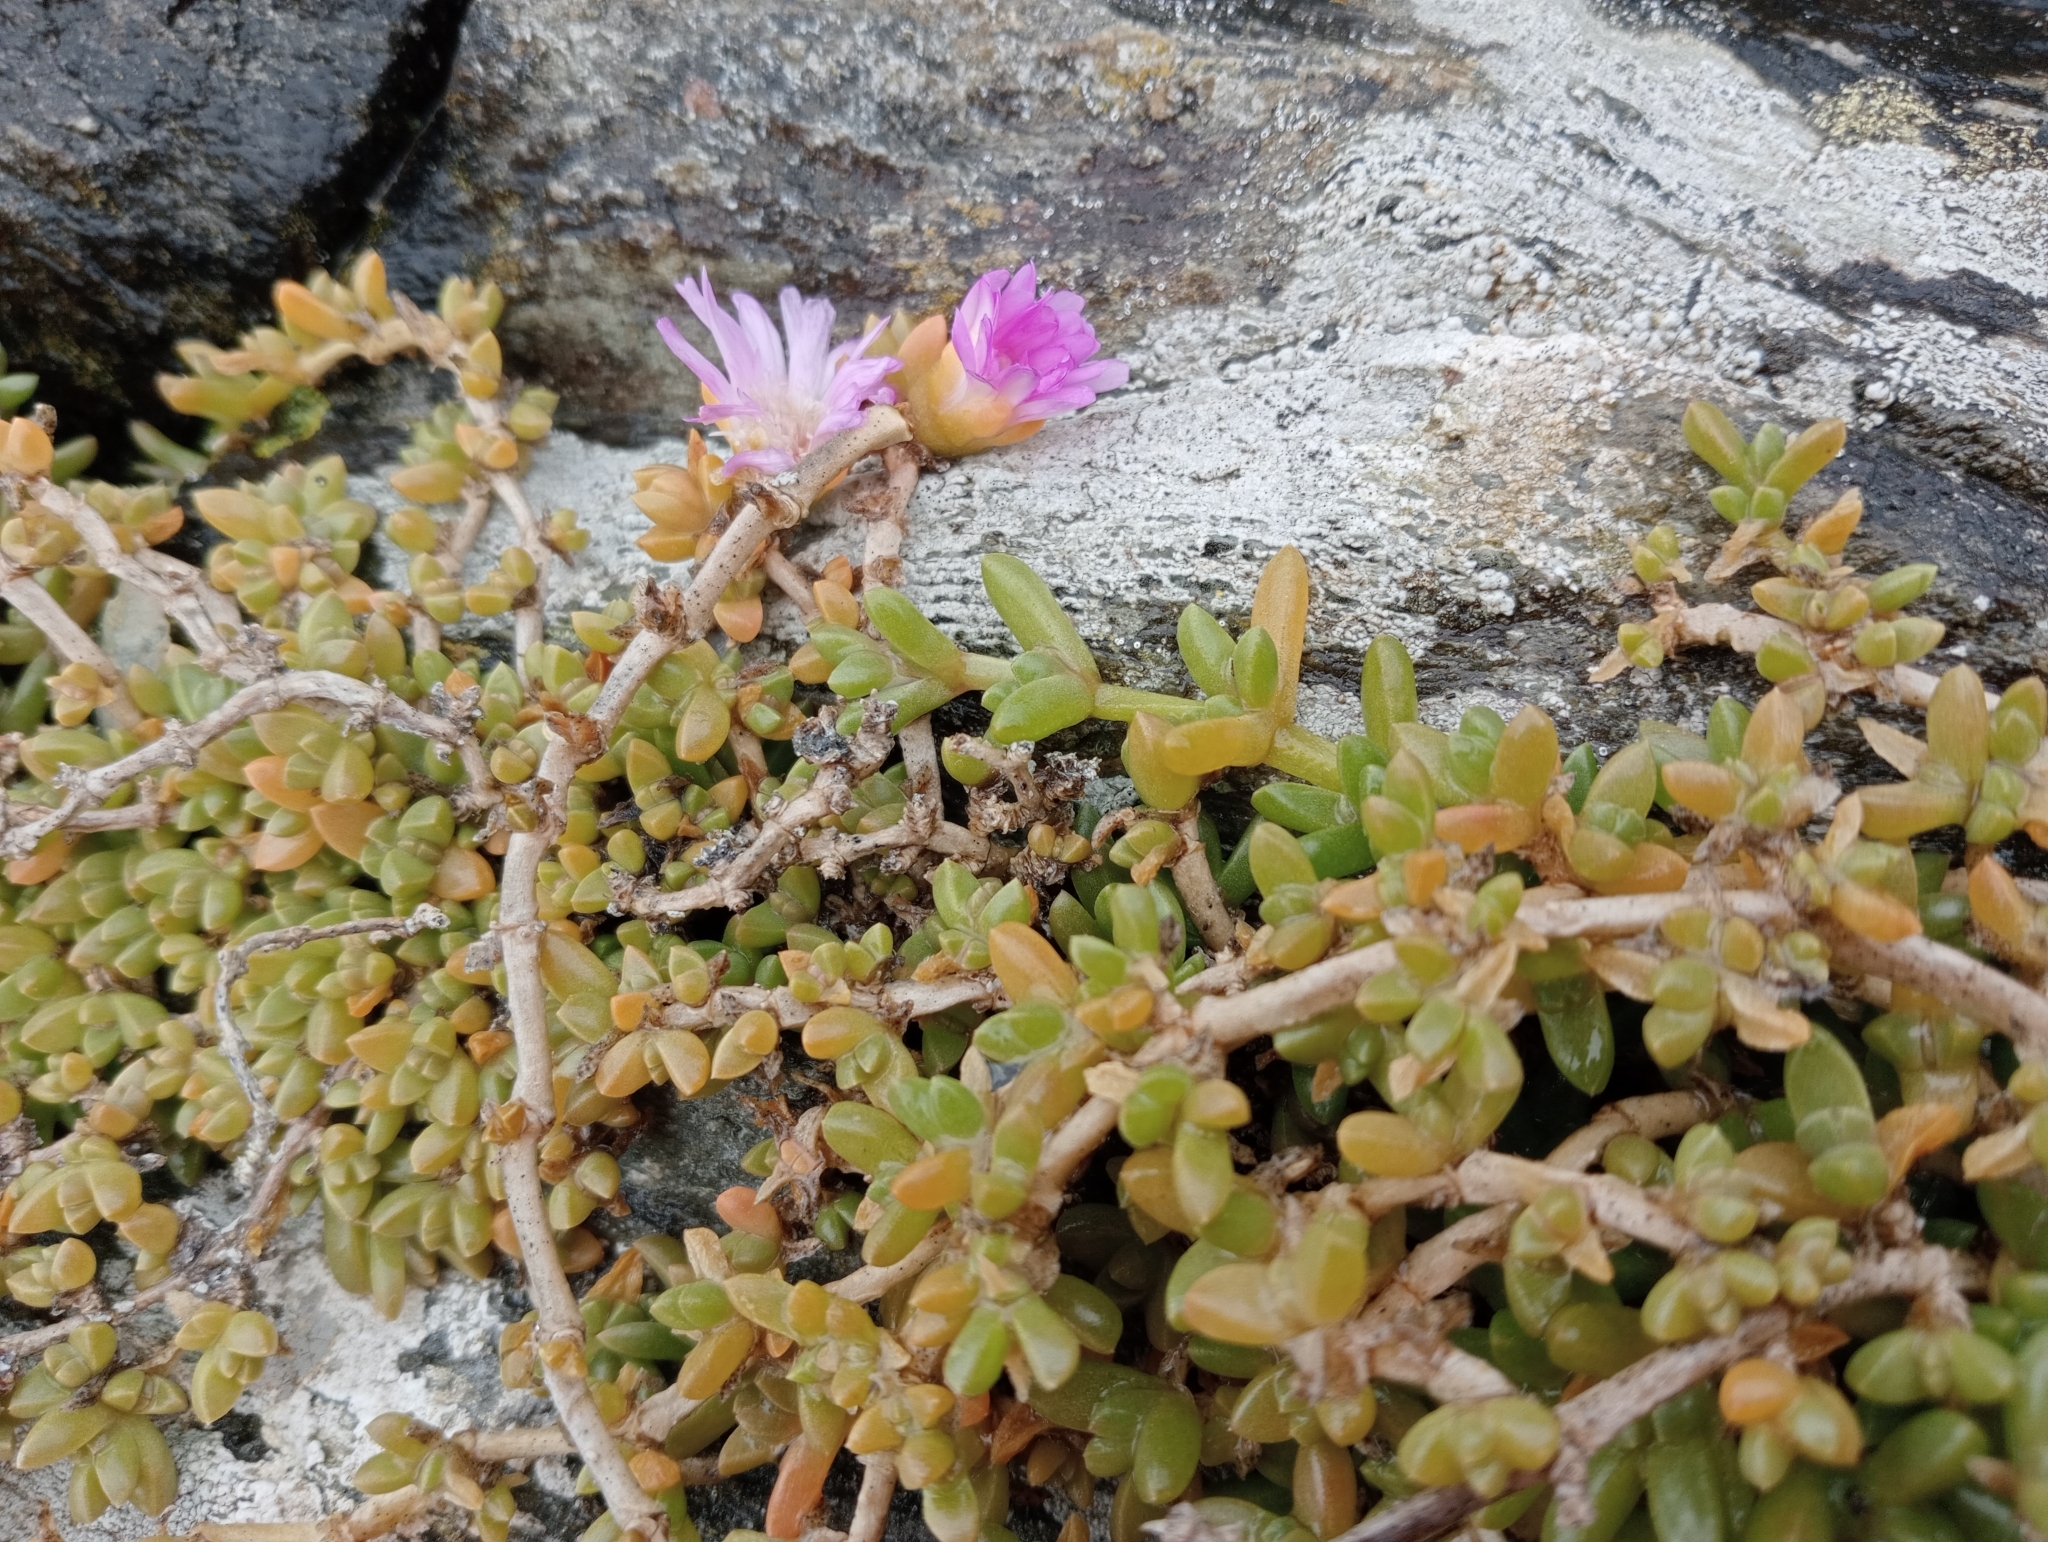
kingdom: Plantae
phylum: Tracheophyta
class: Magnoliopsida
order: Caryophyllales
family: Aizoaceae
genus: Disphyma
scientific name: Disphyma papillatum
